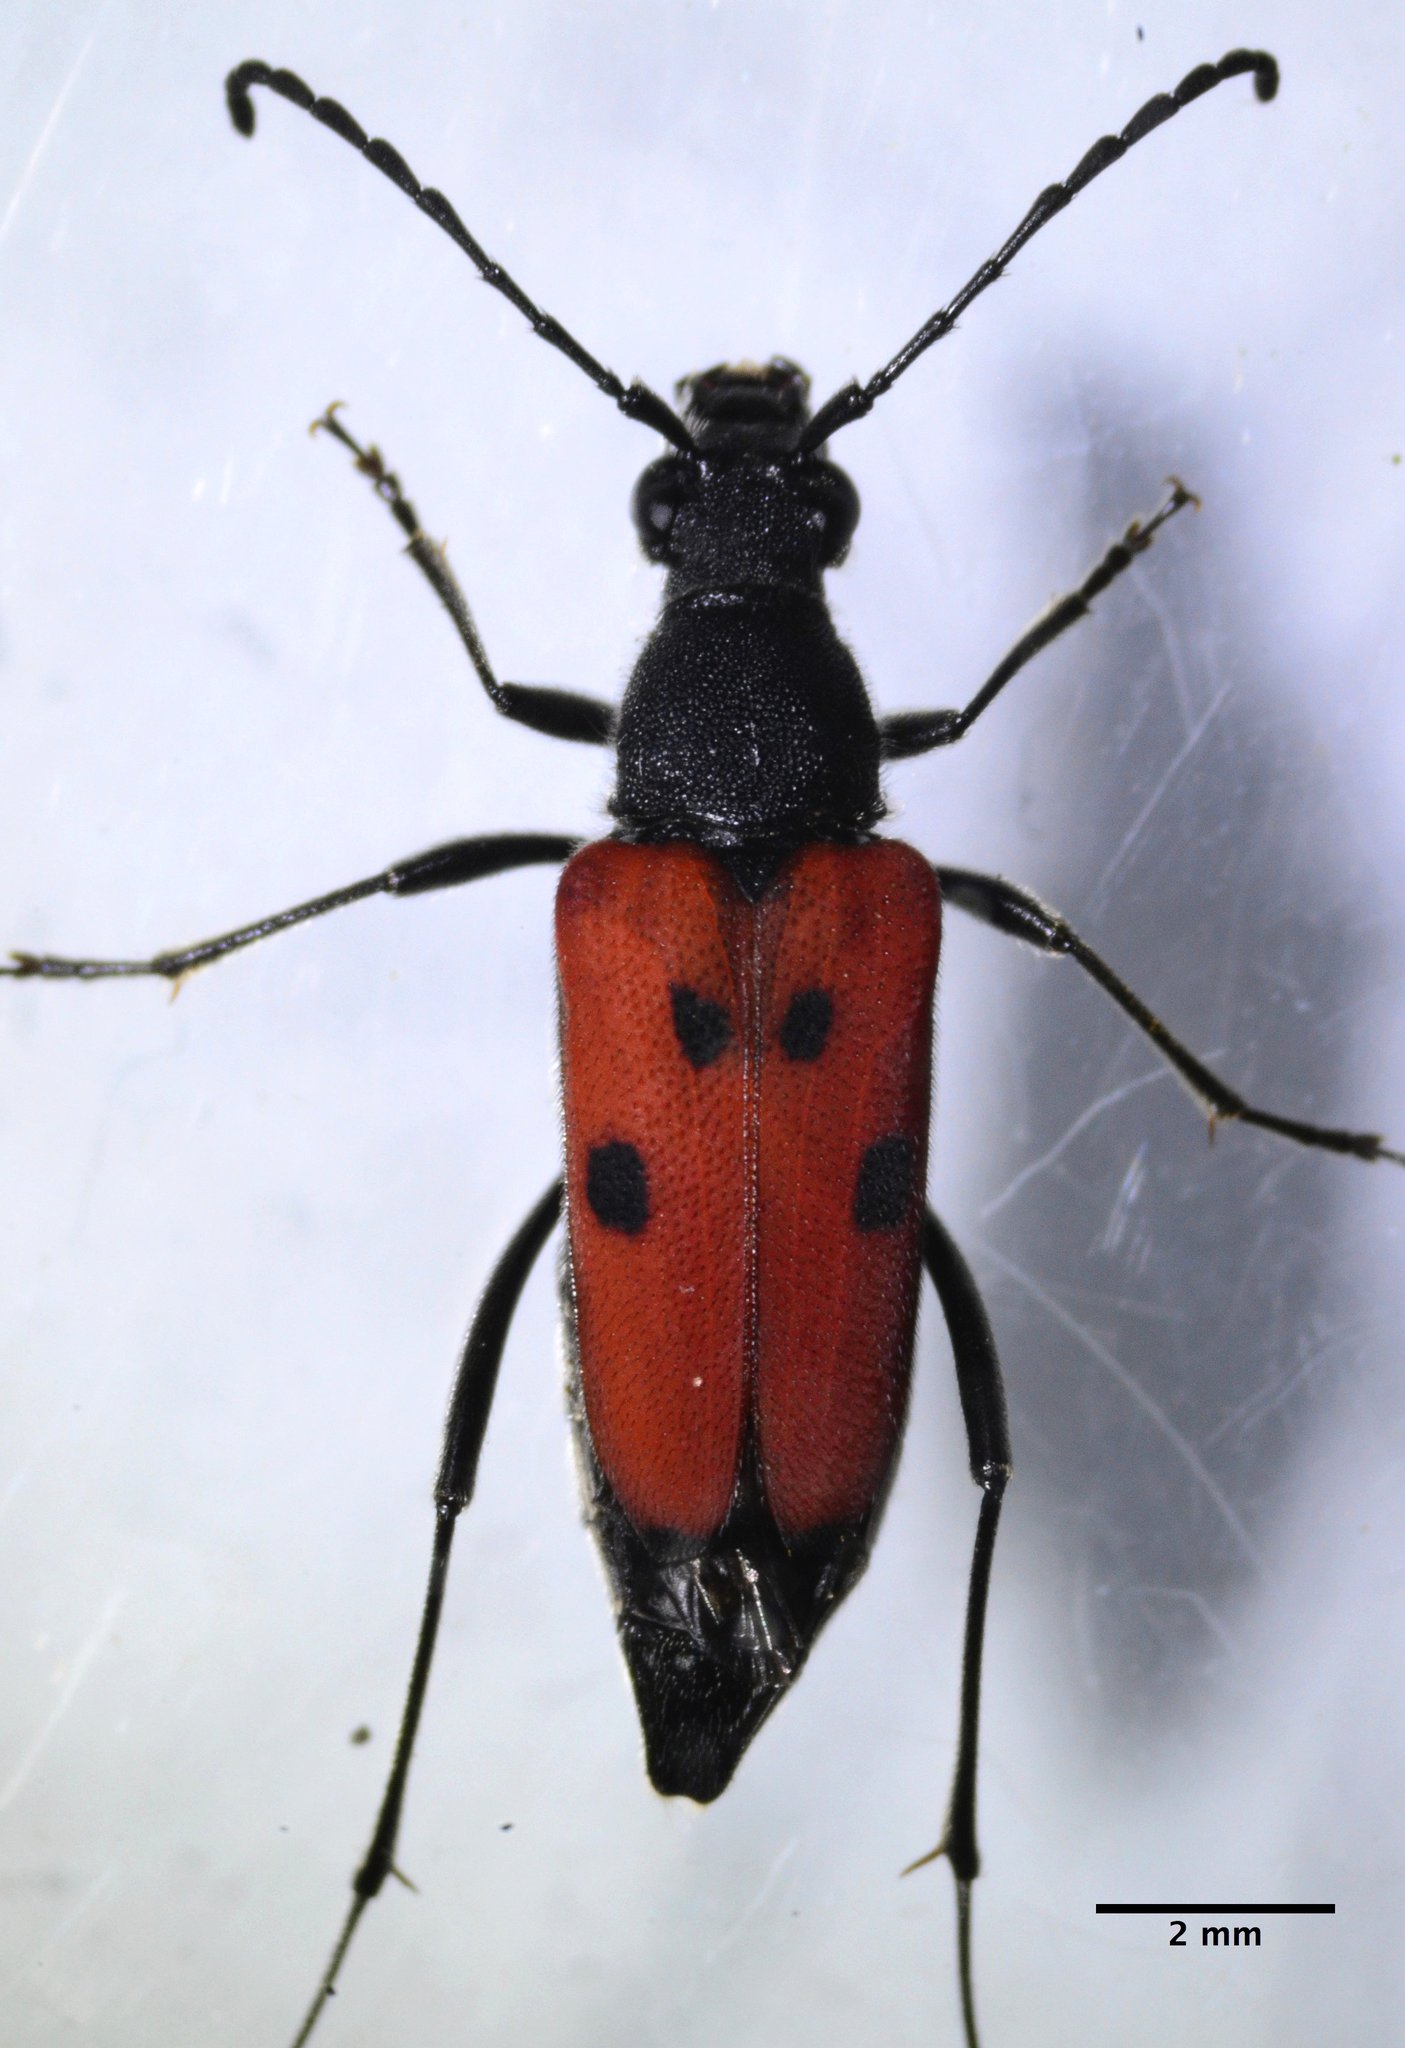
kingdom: Animalia
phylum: Arthropoda
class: Insecta
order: Coleoptera
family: Cerambycidae
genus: Anastrangalia
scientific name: Anastrangalia laetifica
